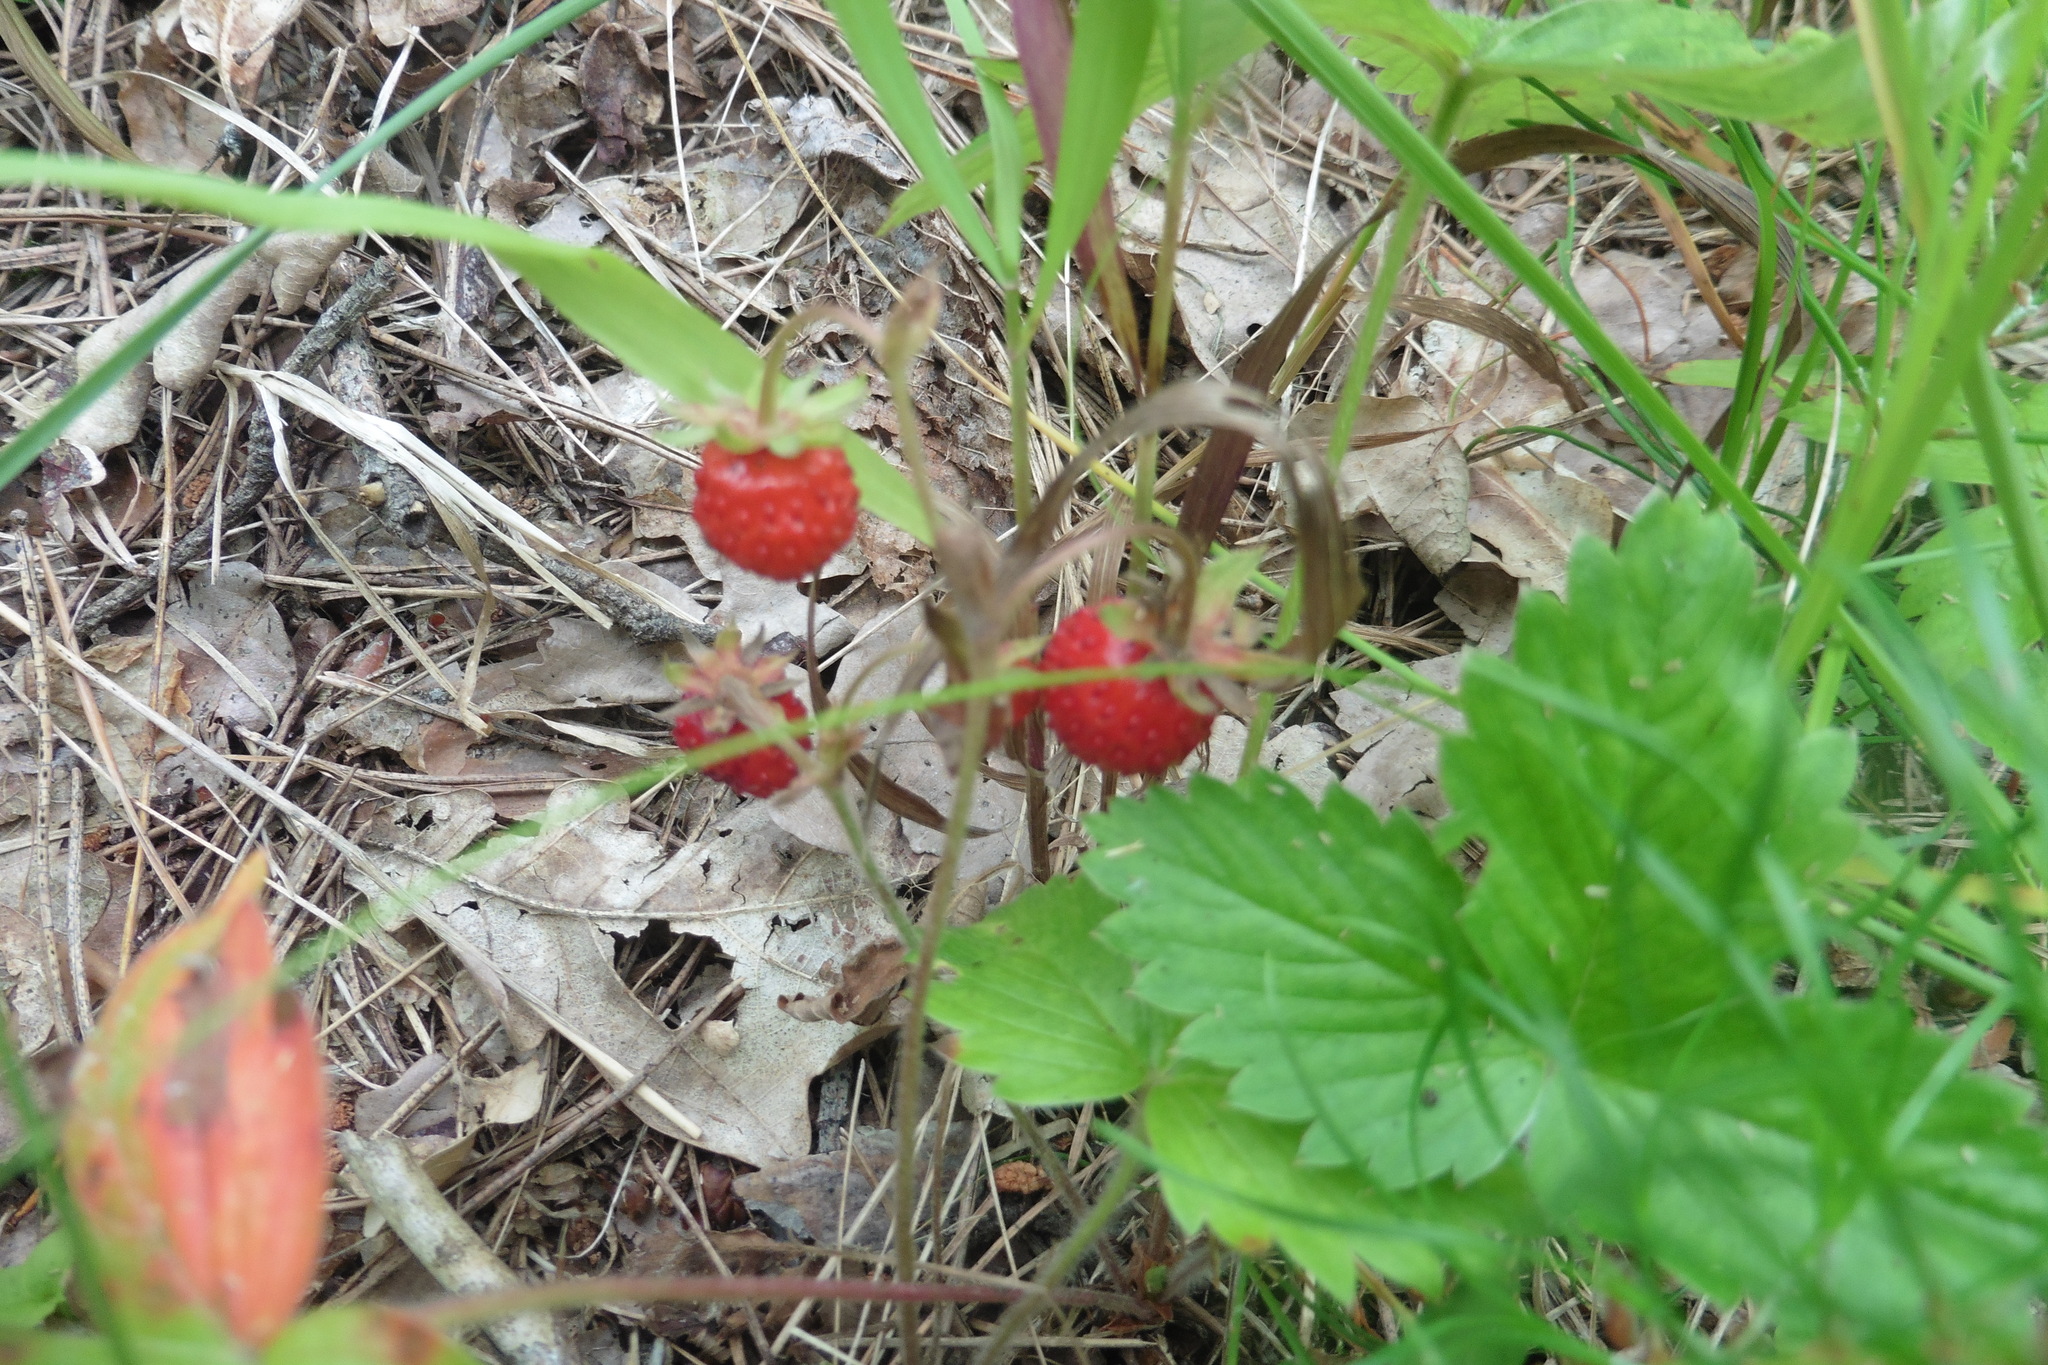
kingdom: Plantae
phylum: Tracheophyta
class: Magnoliopsida
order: Rosales
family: Rosaceae
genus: Fragaria
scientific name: Fragaria vesca
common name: Wild strawberry
